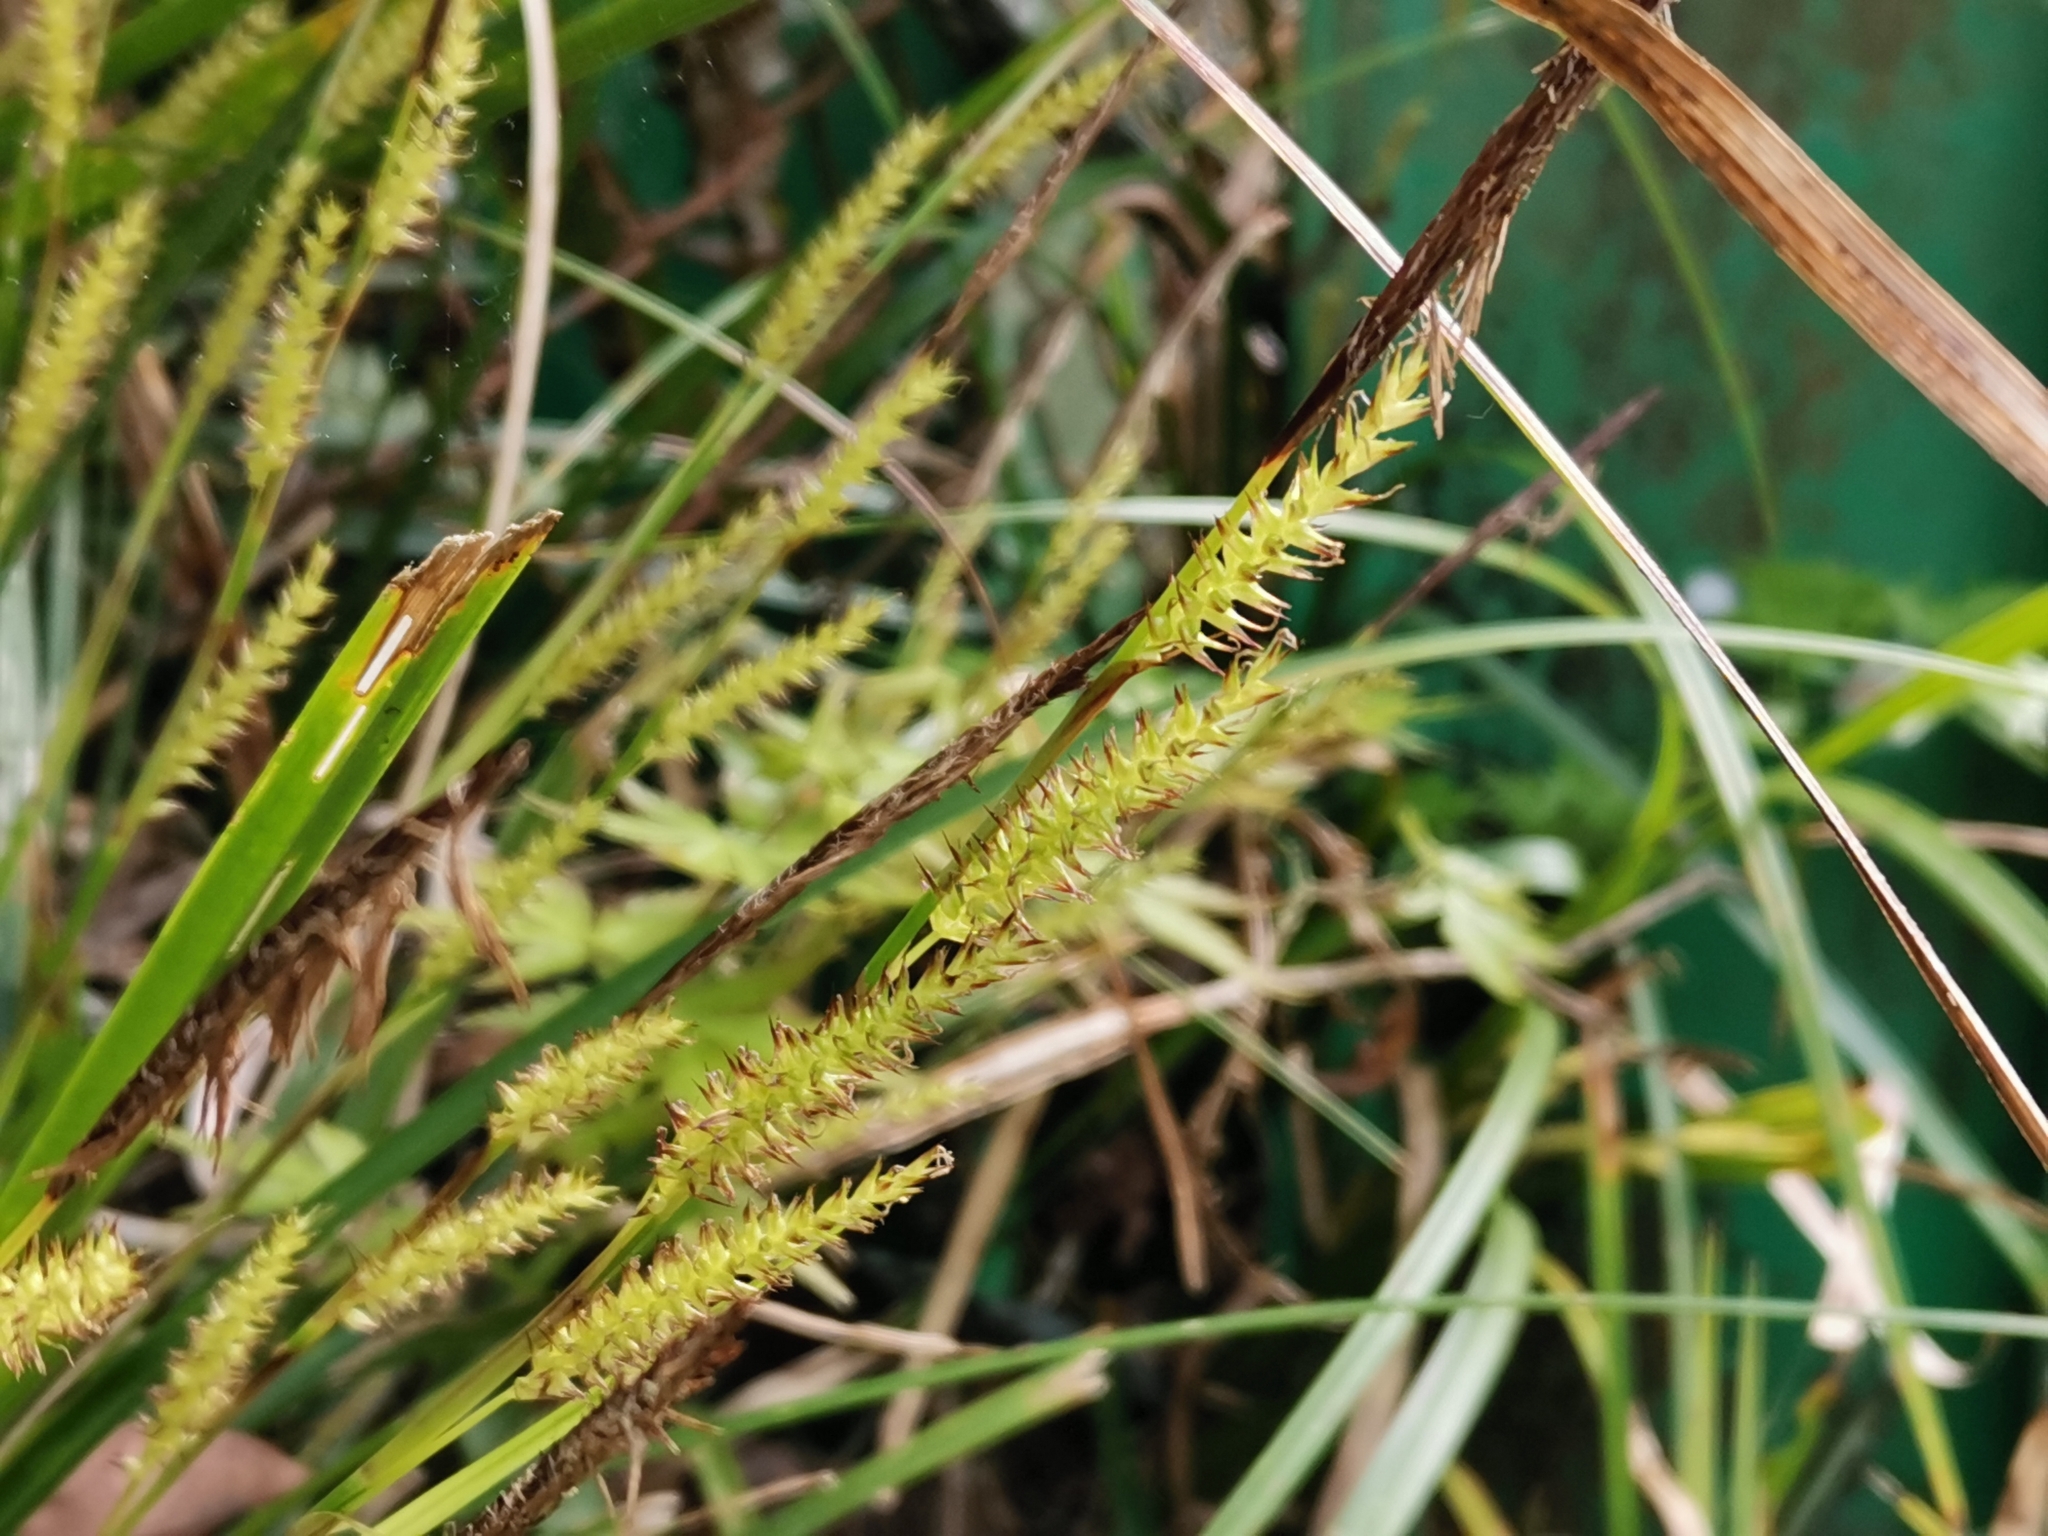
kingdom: Plantae
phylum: Tracheophyta
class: Liliopsida
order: Poales
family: Cyperaceae
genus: Carex
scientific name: Carex morrowii
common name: Japanese sedge
